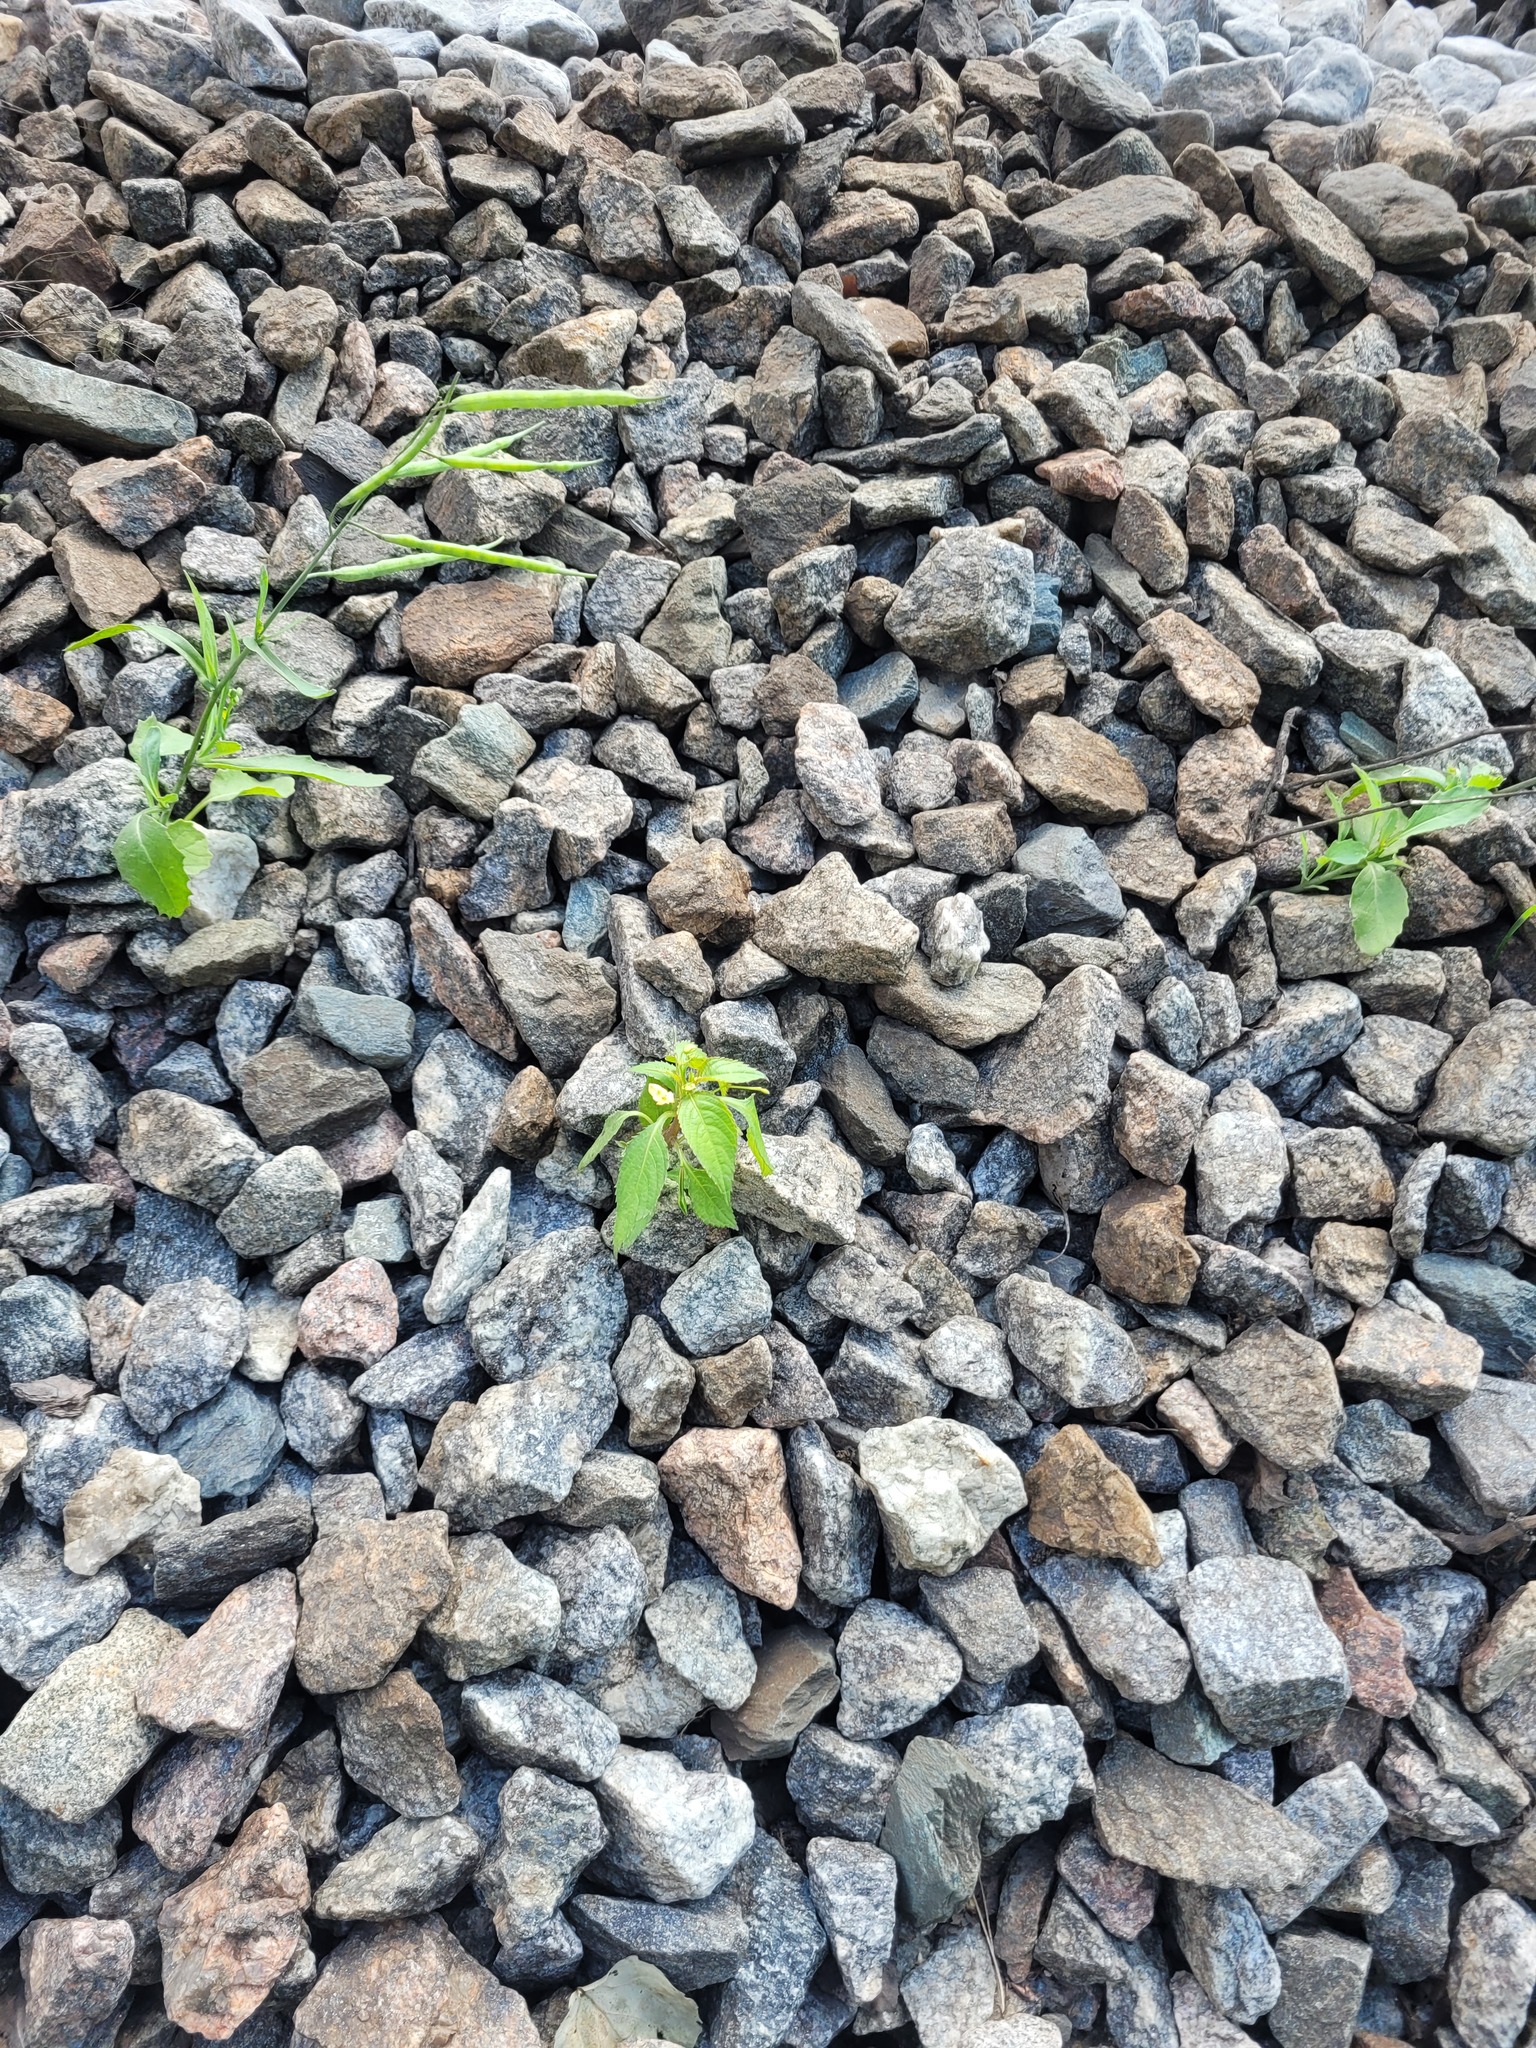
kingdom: Plantae
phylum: Tracheophyta
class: Magnoliopsida
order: Ericales
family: Balsaminaceae
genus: Impatiens
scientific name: Impatiens parviflora
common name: Small balsam
